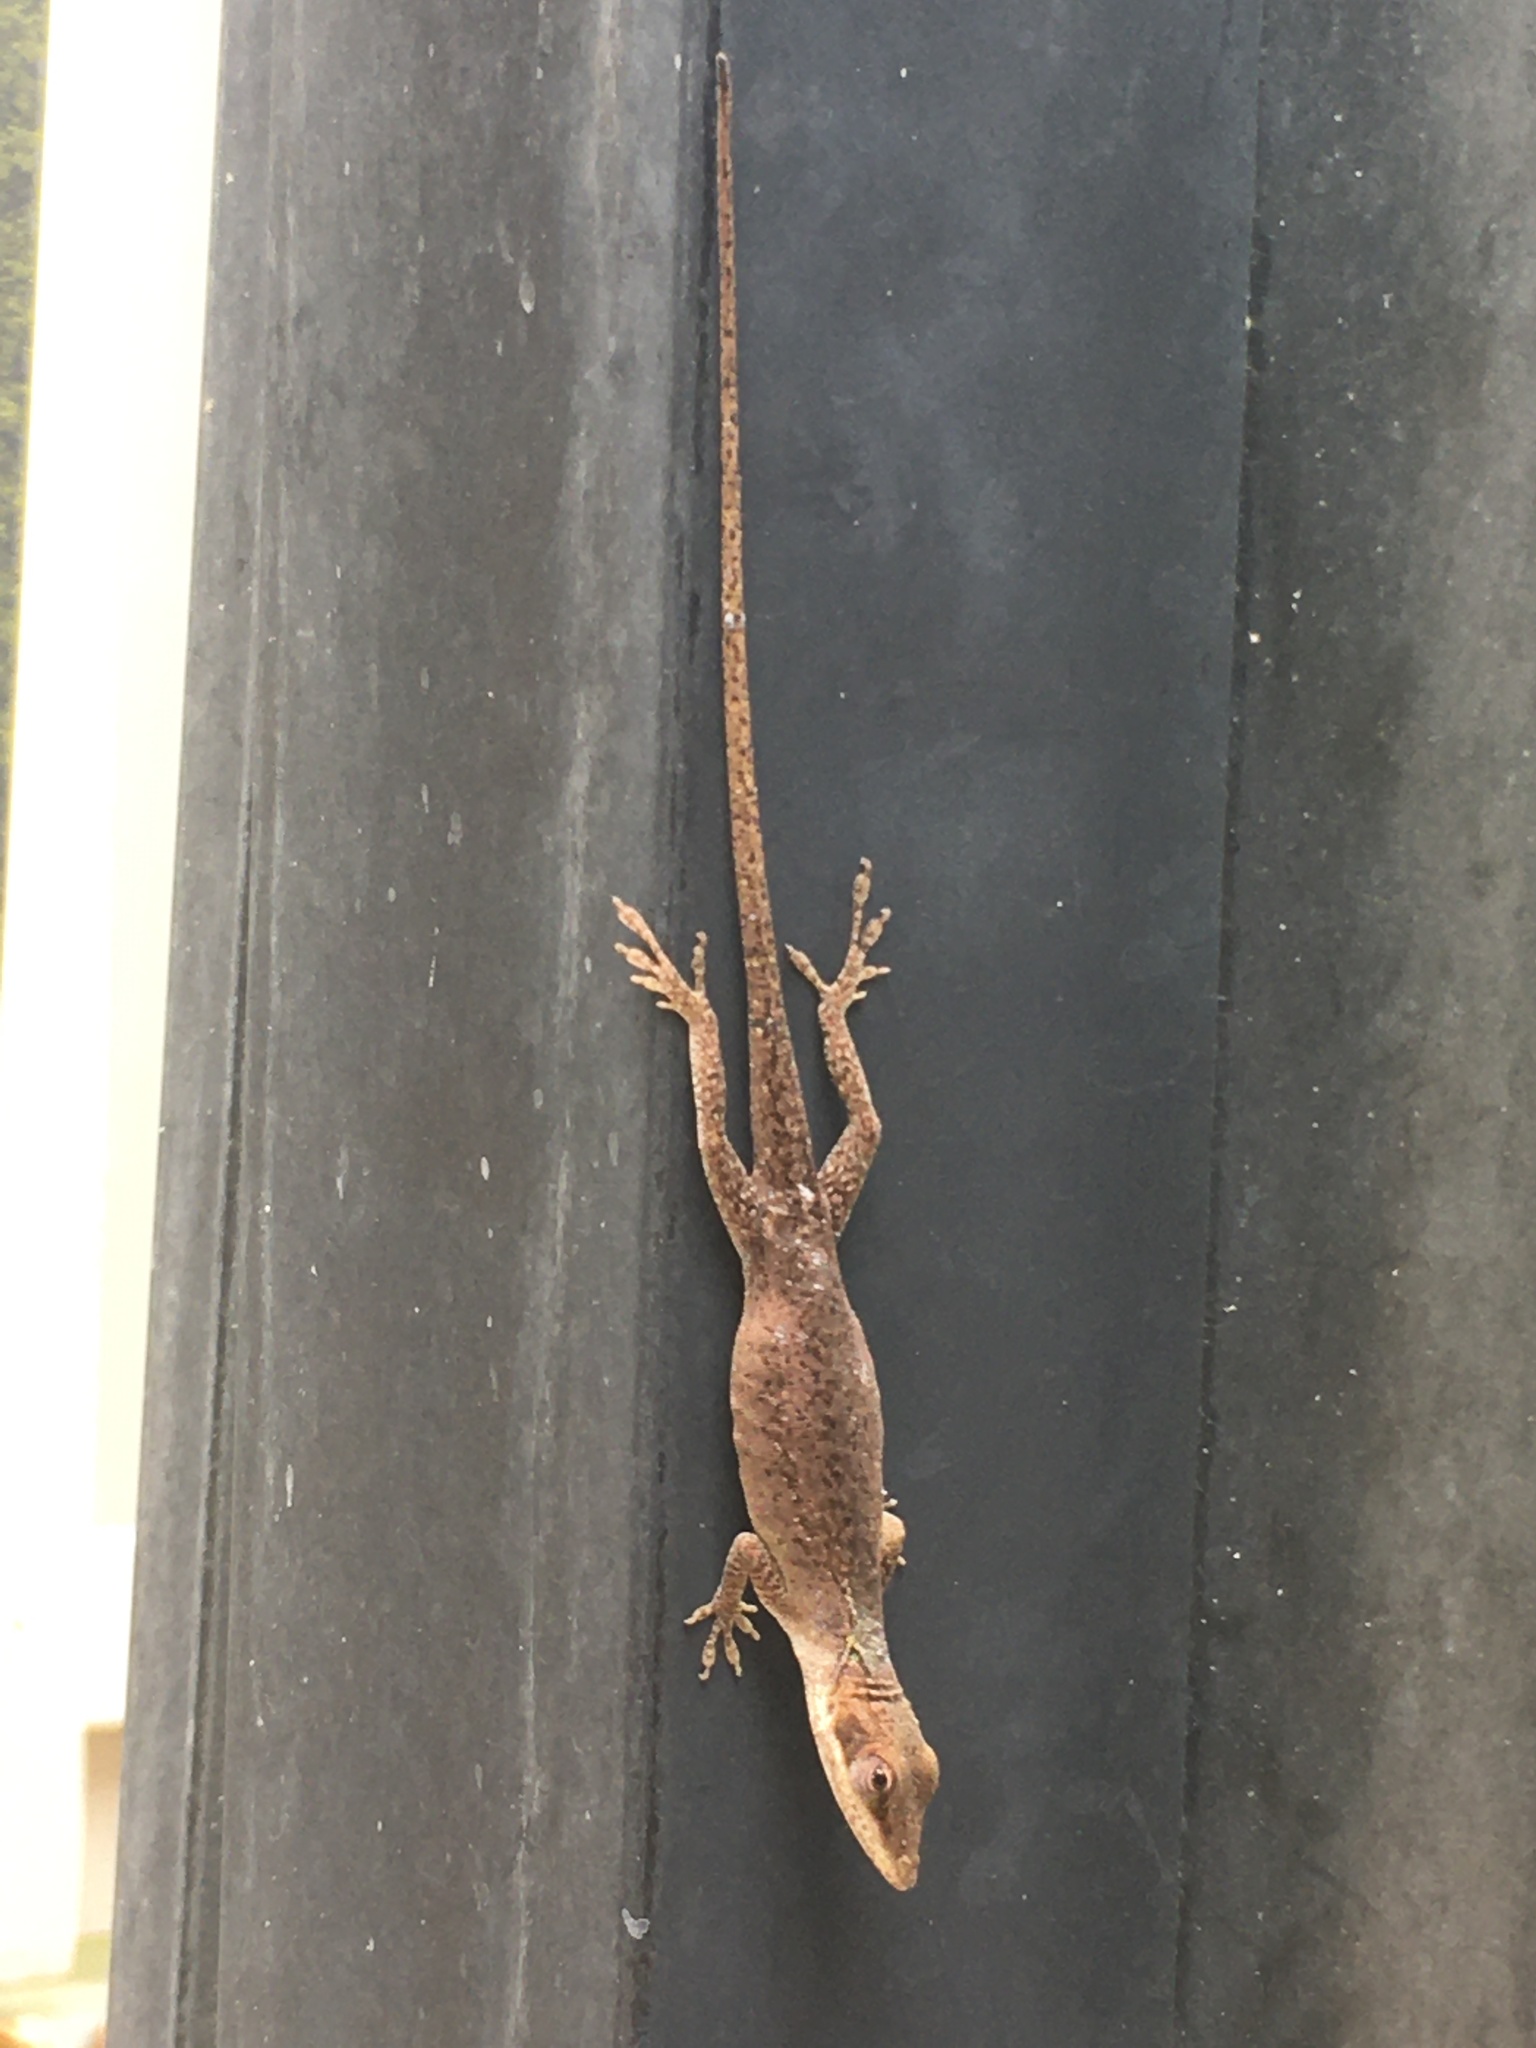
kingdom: Animalia
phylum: Chordata
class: Squamata
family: Dactyloidae
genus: Anolis
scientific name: Anolis carolinensis
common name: Green anole
